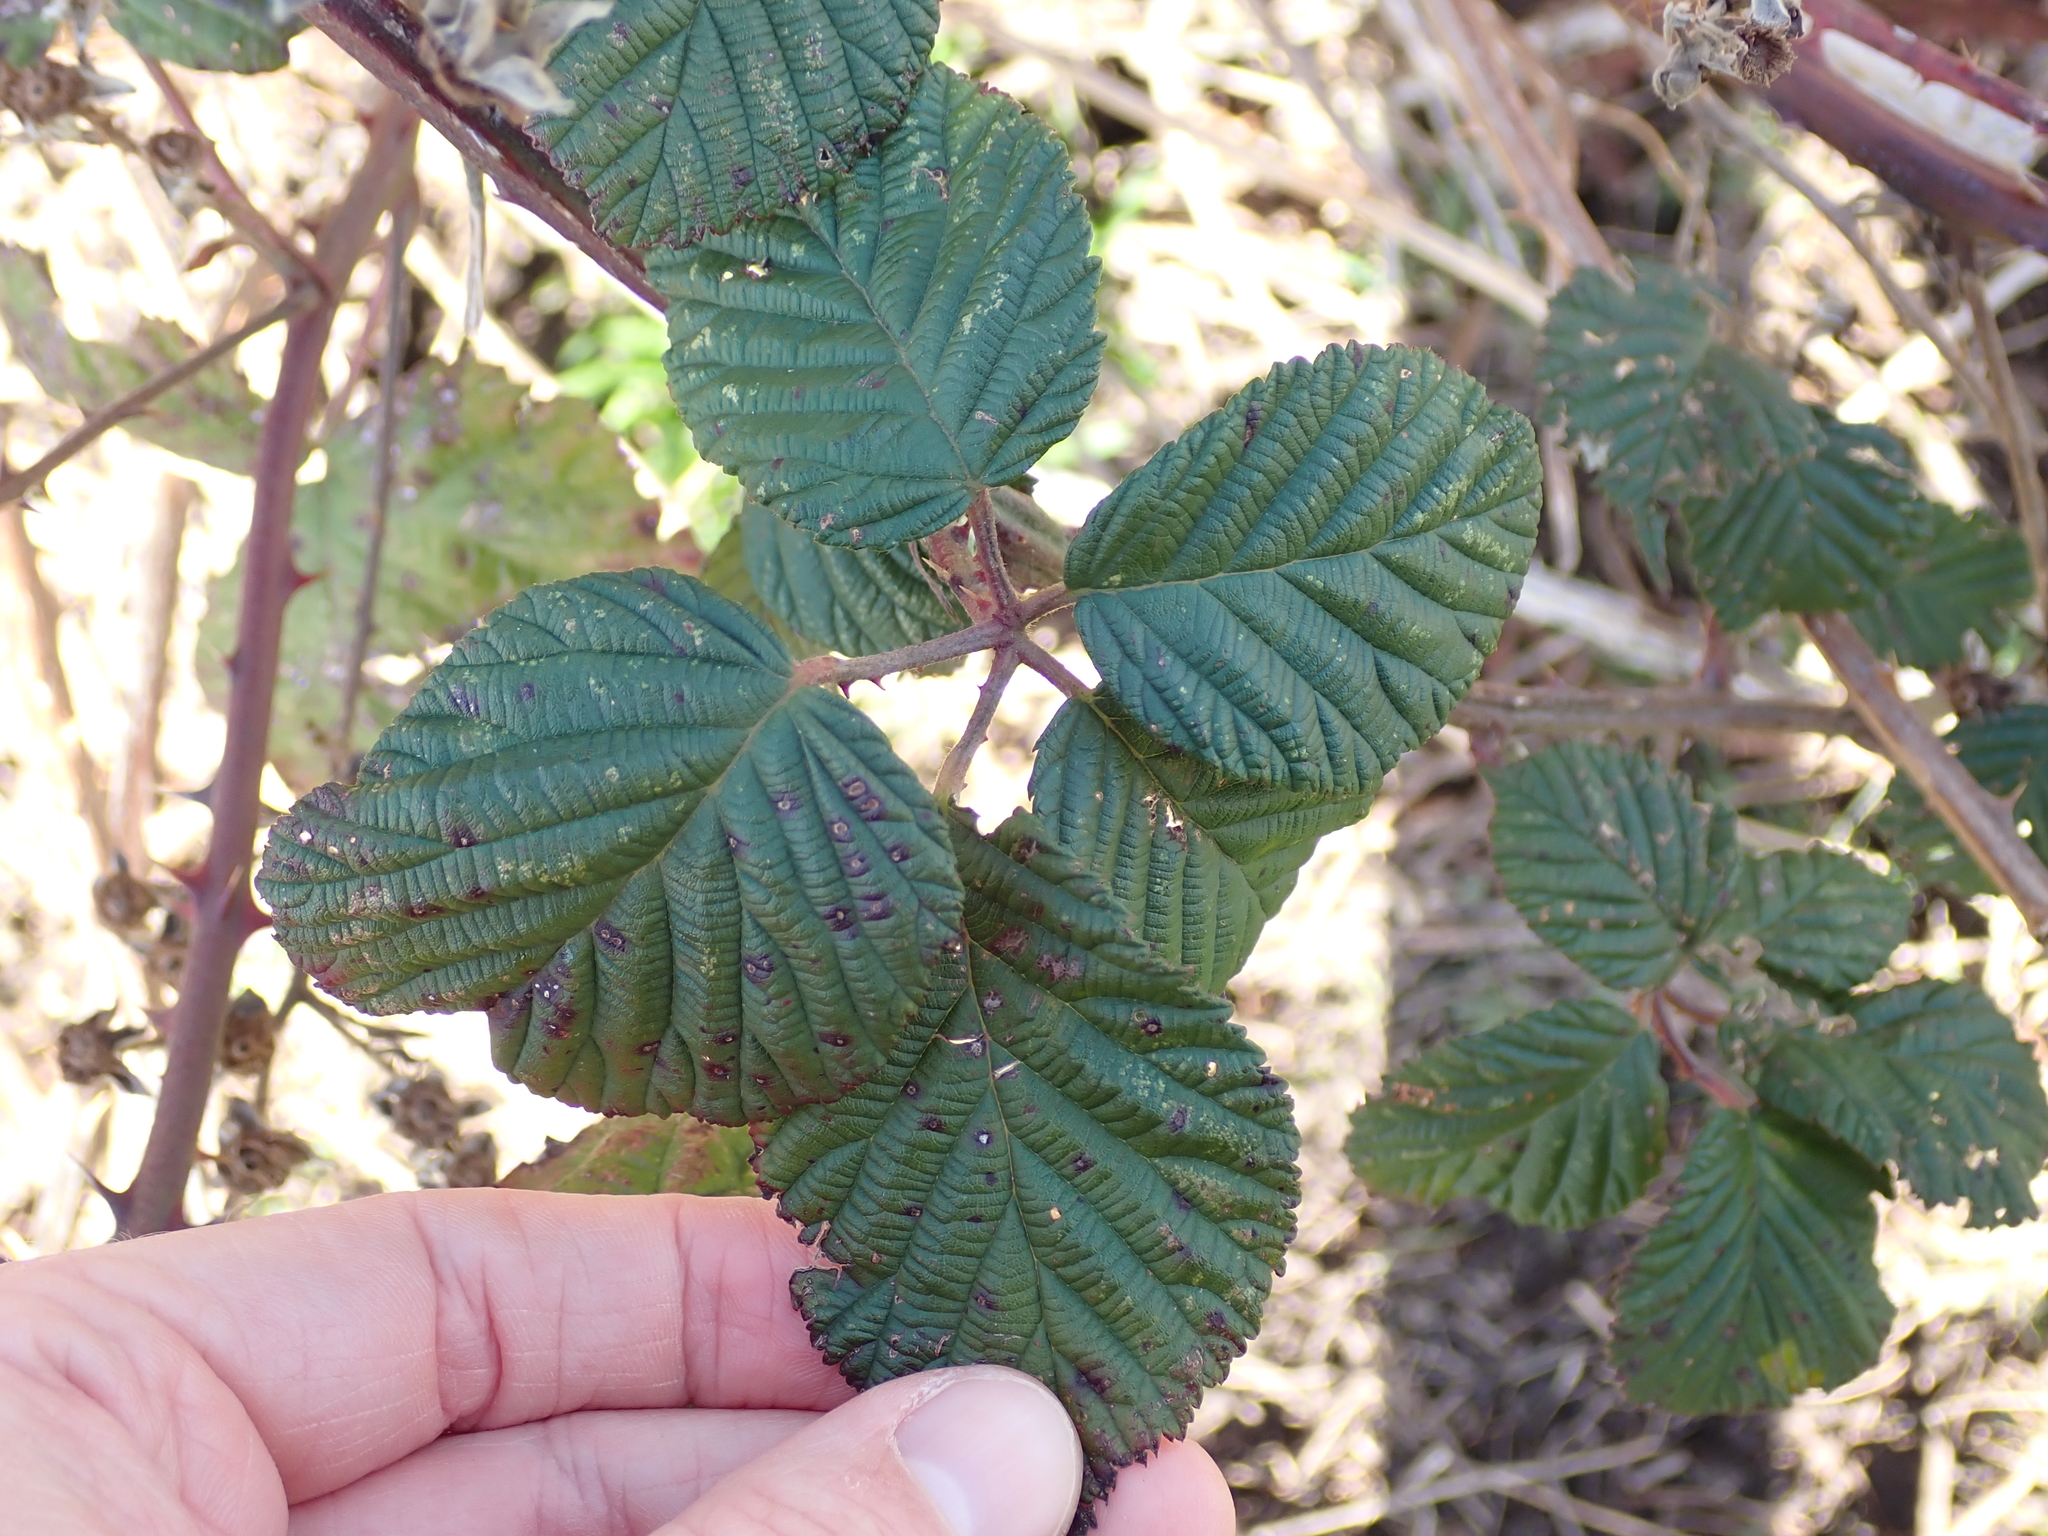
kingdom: Plantae
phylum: Tracheophyta
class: Magnoliopsida
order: Rosales
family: Rosaceae
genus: Rubus
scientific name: Rubus bifrons
